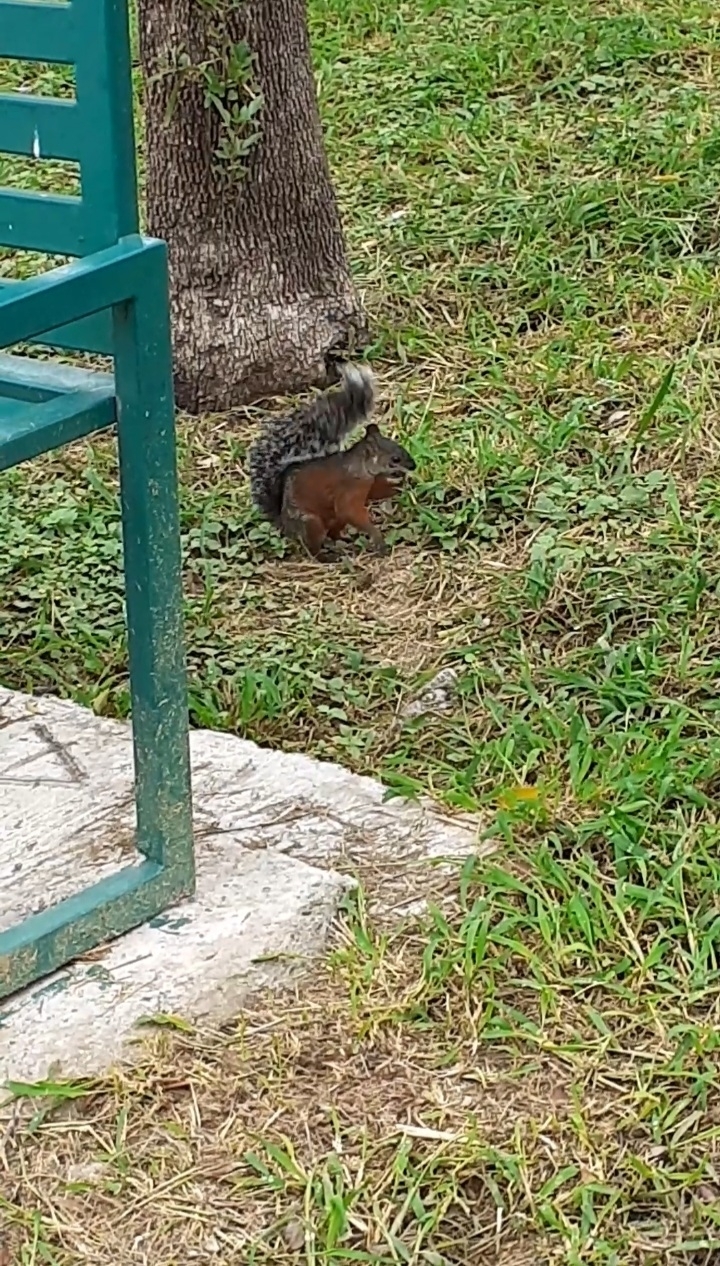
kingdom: Animalia
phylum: Chordata
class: Mammalia
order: Rodentia
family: Sciuridae
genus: Sciurus
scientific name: Sciurus aureogaster
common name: Red-bellied squirrel
